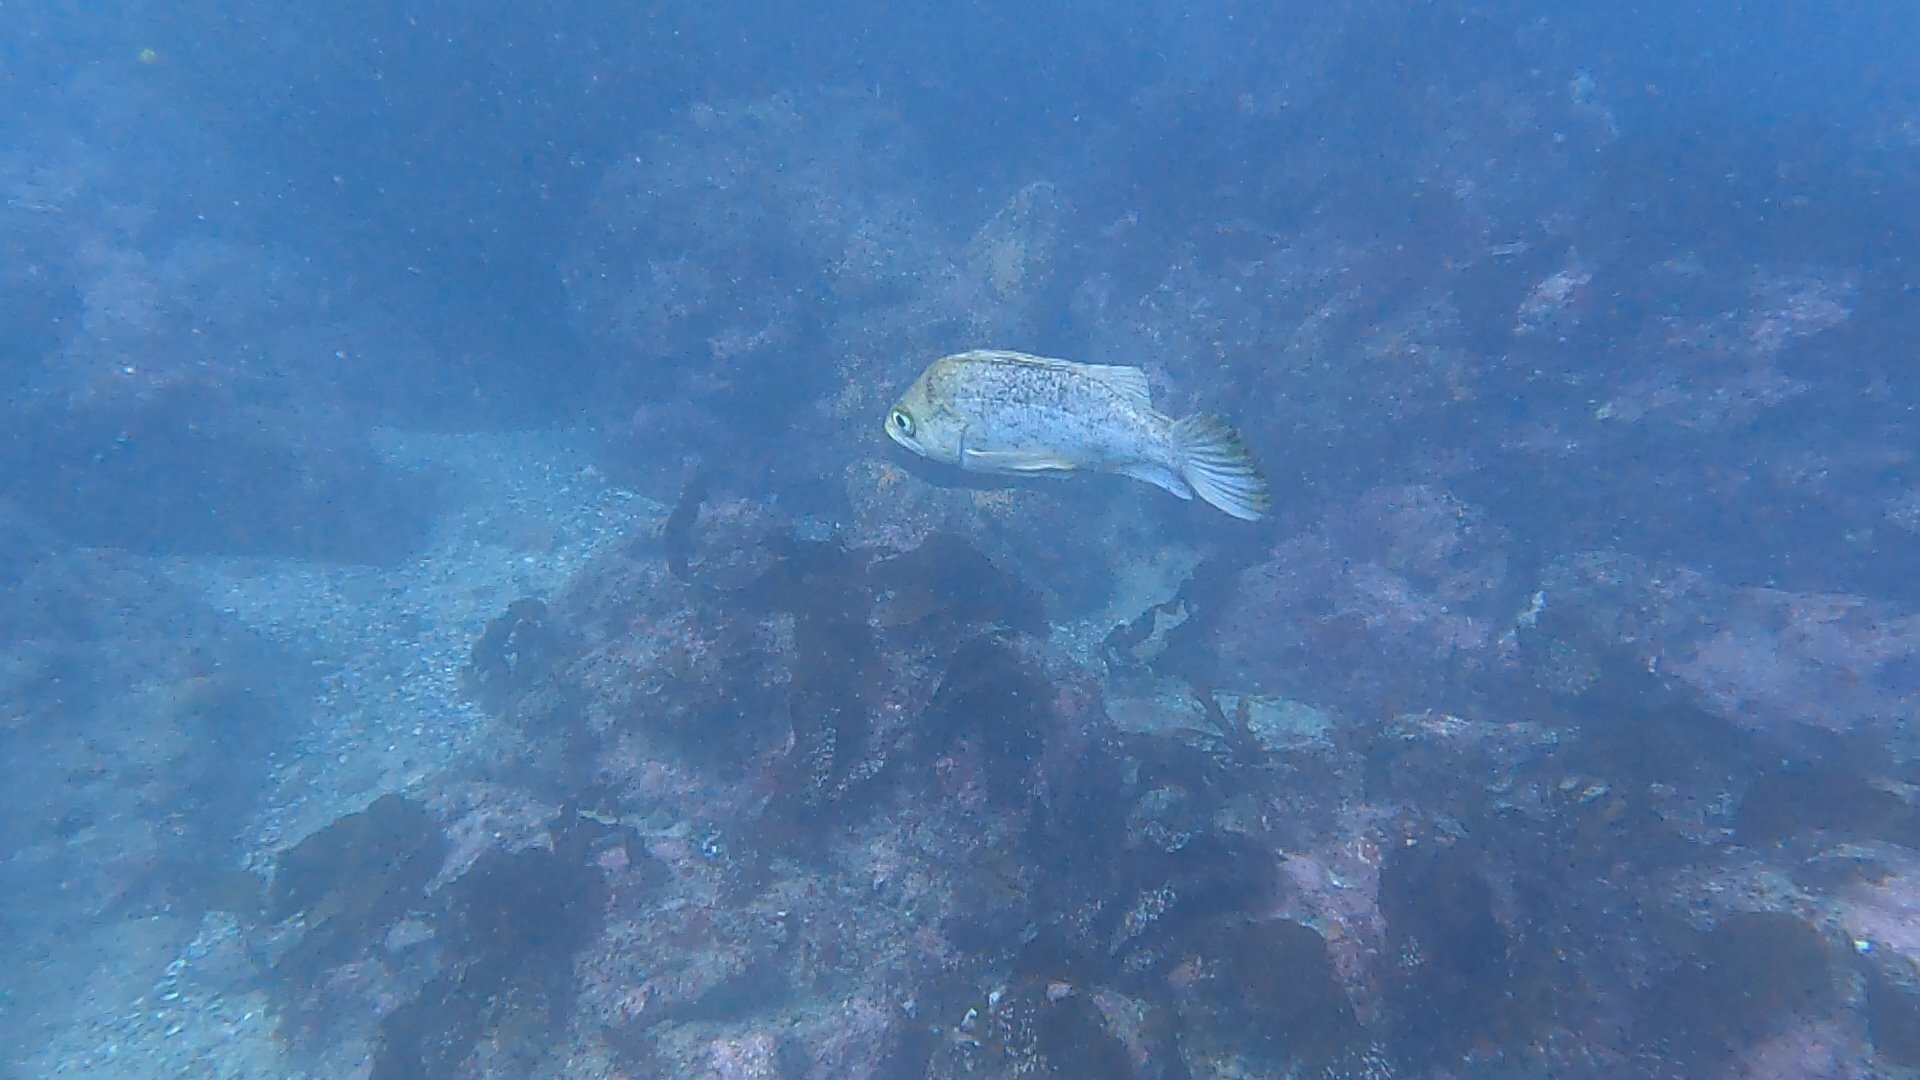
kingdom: Animalia
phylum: Chordata
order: Scorpaeniformes
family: Sebastidae
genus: Sebastes
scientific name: Sebastes atrovirens
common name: Kelp rockfish
